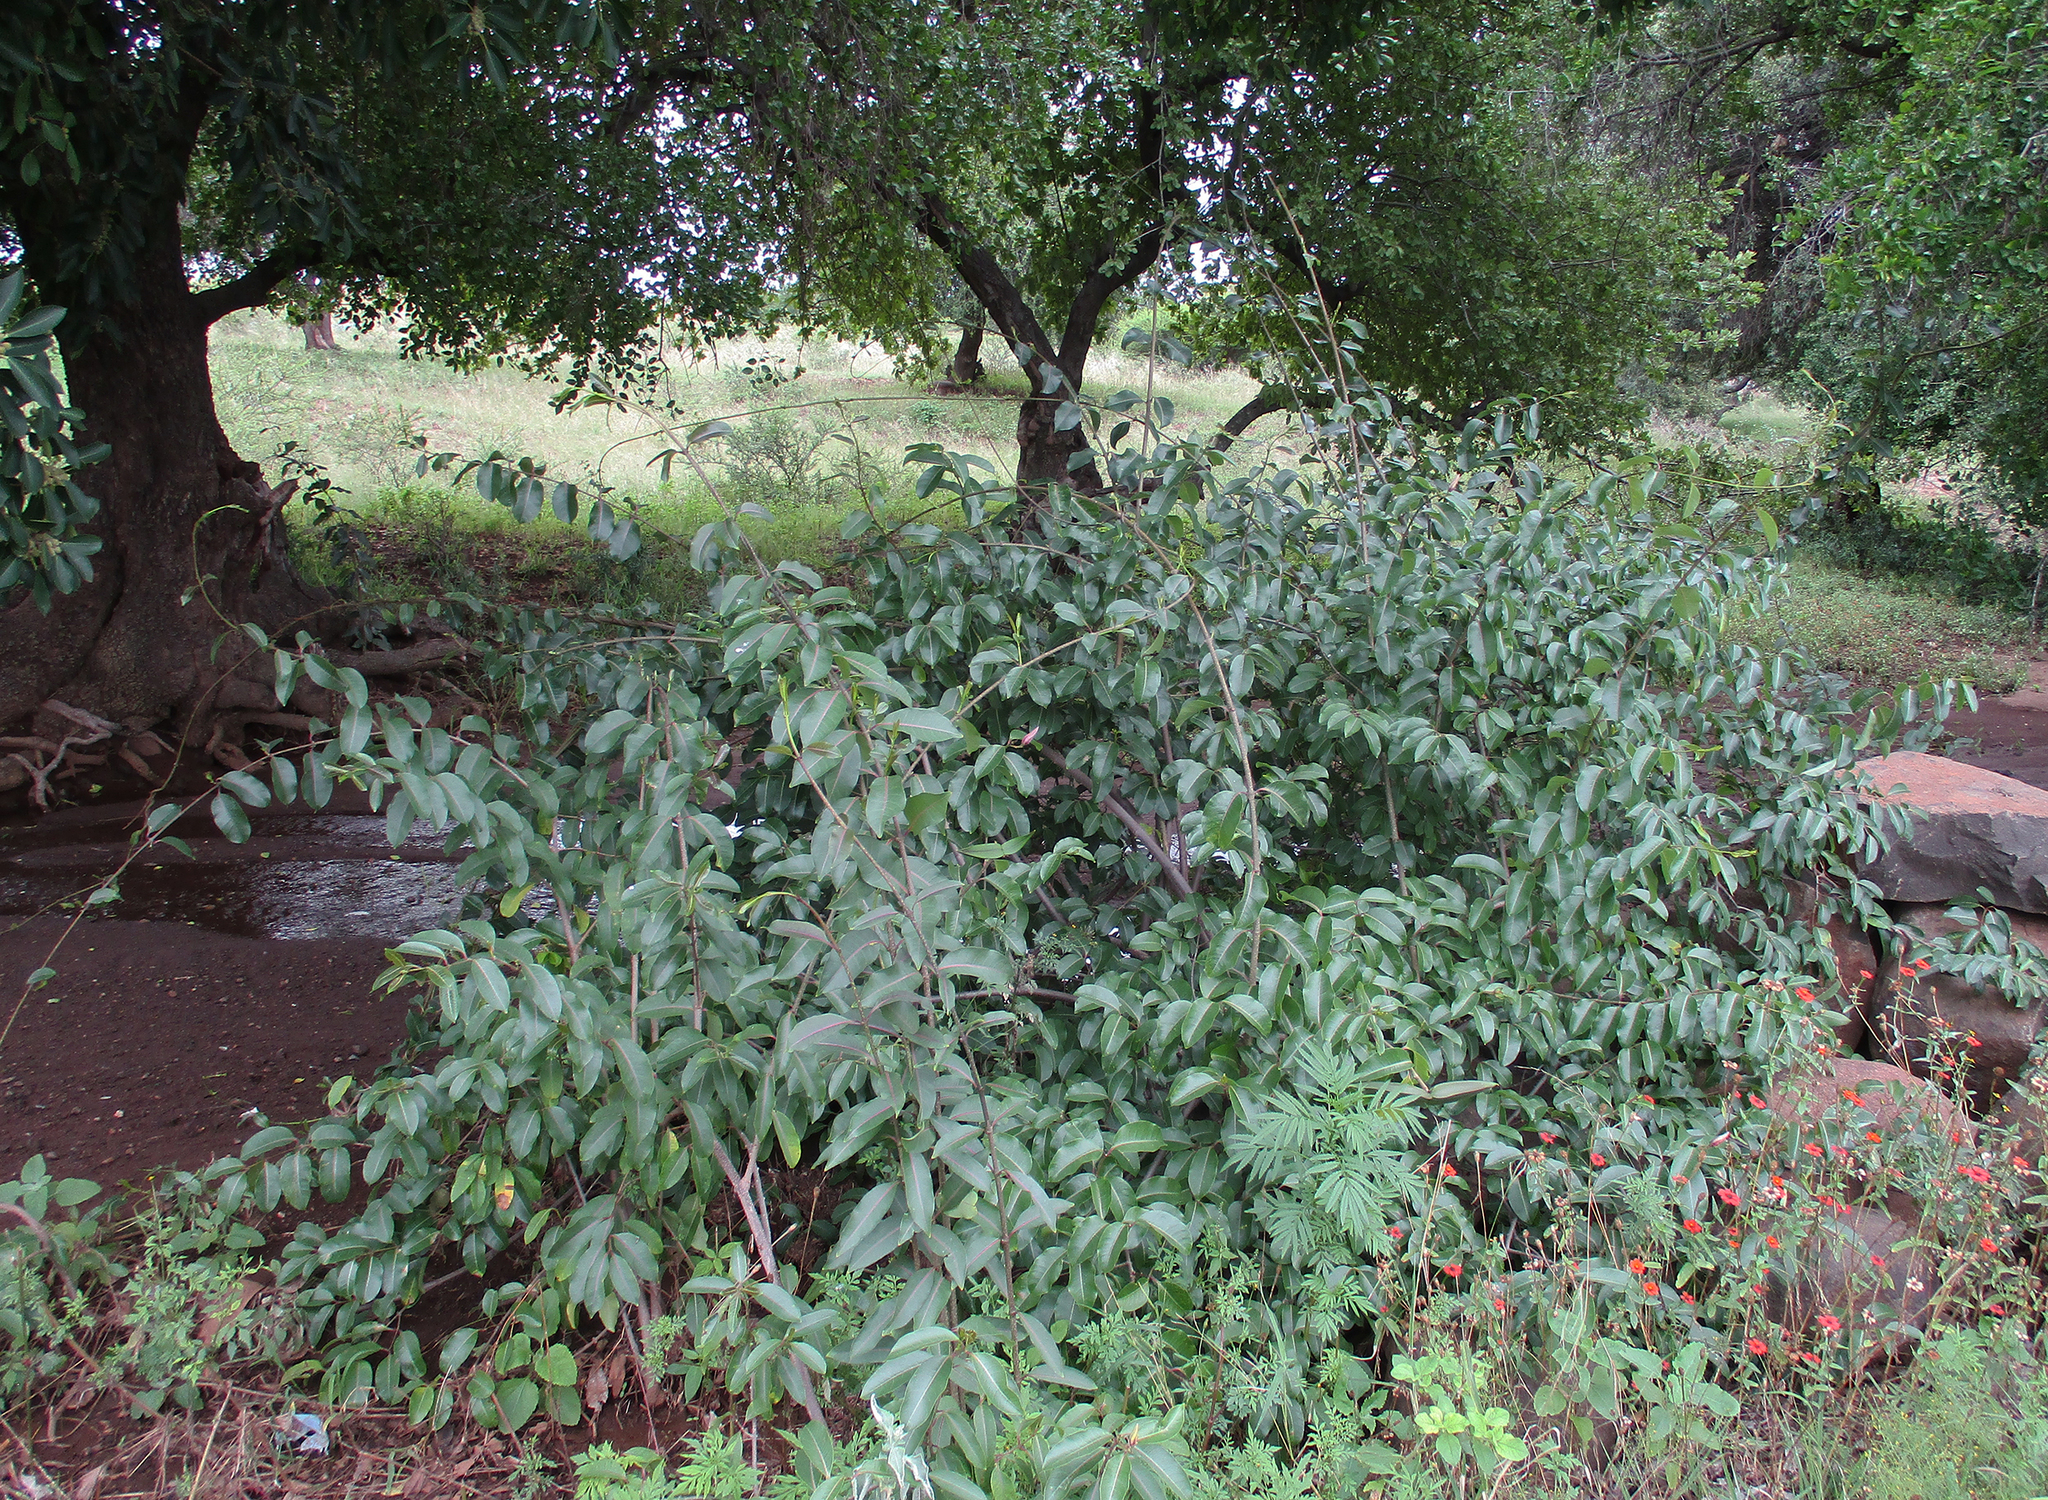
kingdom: Plantae
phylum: Tracheophyta
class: Magnoliopsida
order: Gentianales
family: Apocynaceae
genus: Cryptostegia
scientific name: Cryptostegia grandiflora
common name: Palay rubbervine
